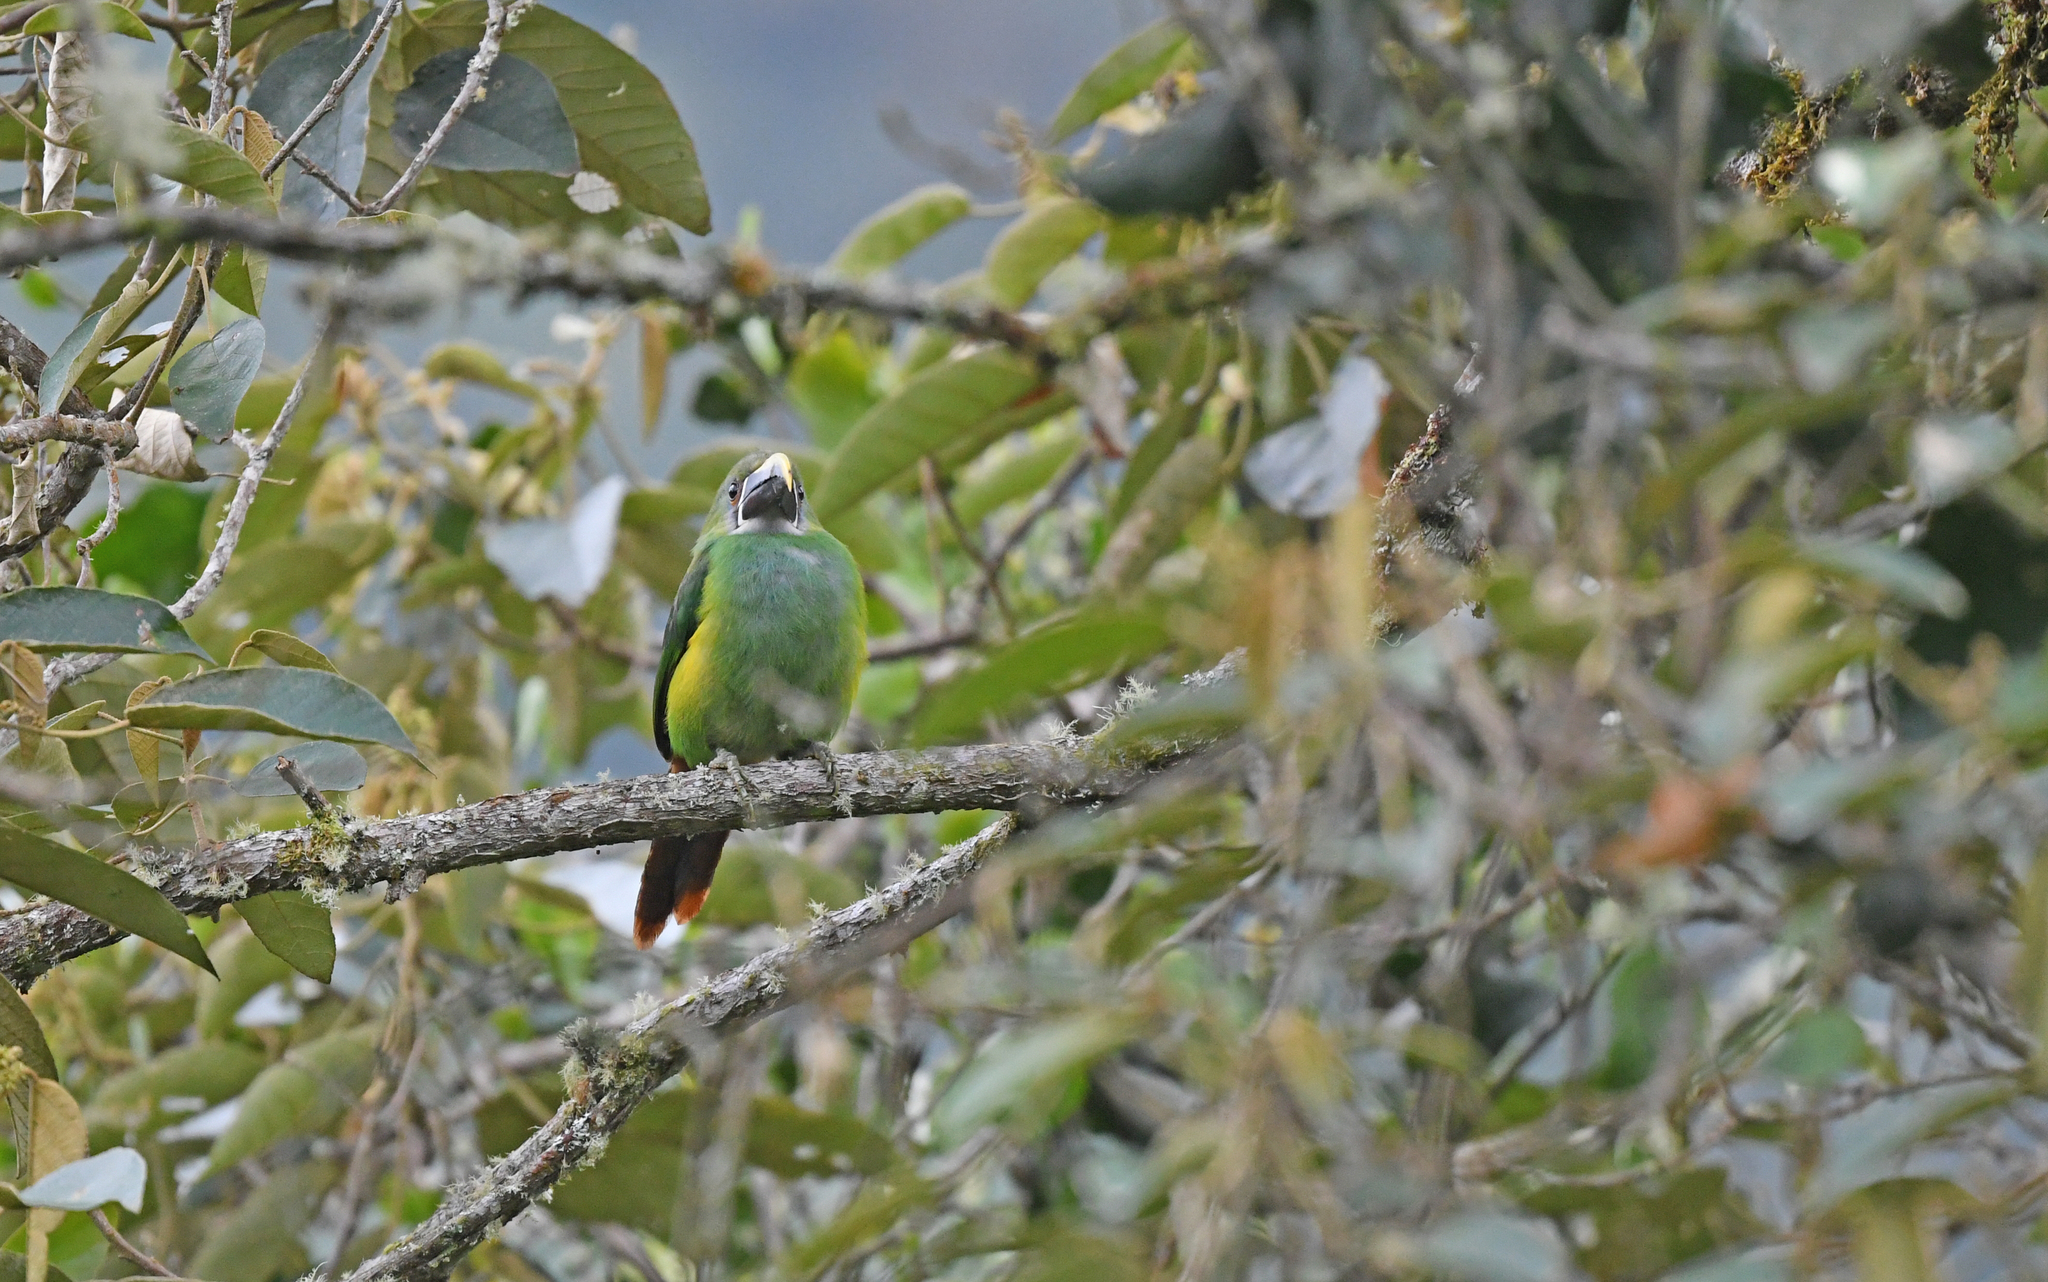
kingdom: Animalia
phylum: Chordata
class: Aves
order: Piciformes
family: Ramphastidae
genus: Aulacorhynchus
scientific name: Aulacorhynchus albivitta
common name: White-throated toucanet
